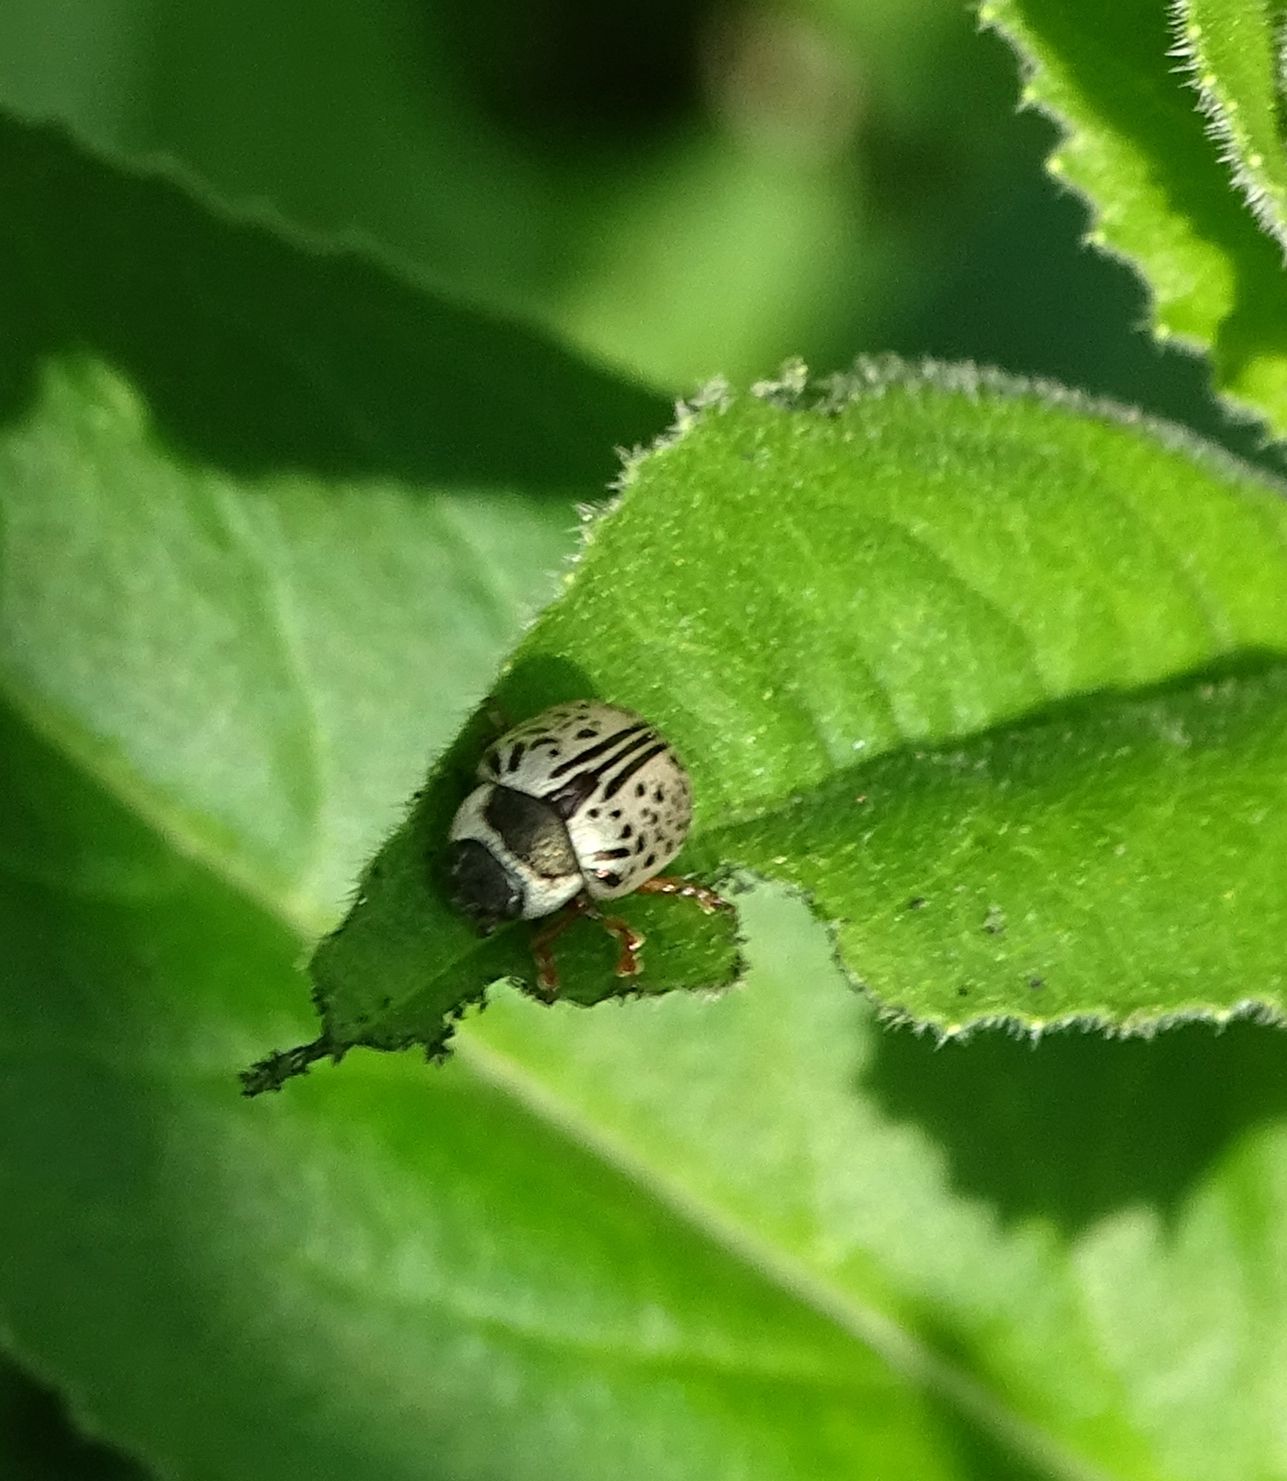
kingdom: Animalia
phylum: Arthropoda
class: Insecta
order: Coleoptera
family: Chrysomelidae
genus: Calligrapha
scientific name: Calligrapha multipunctata
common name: Common willow calligrapher beetle
